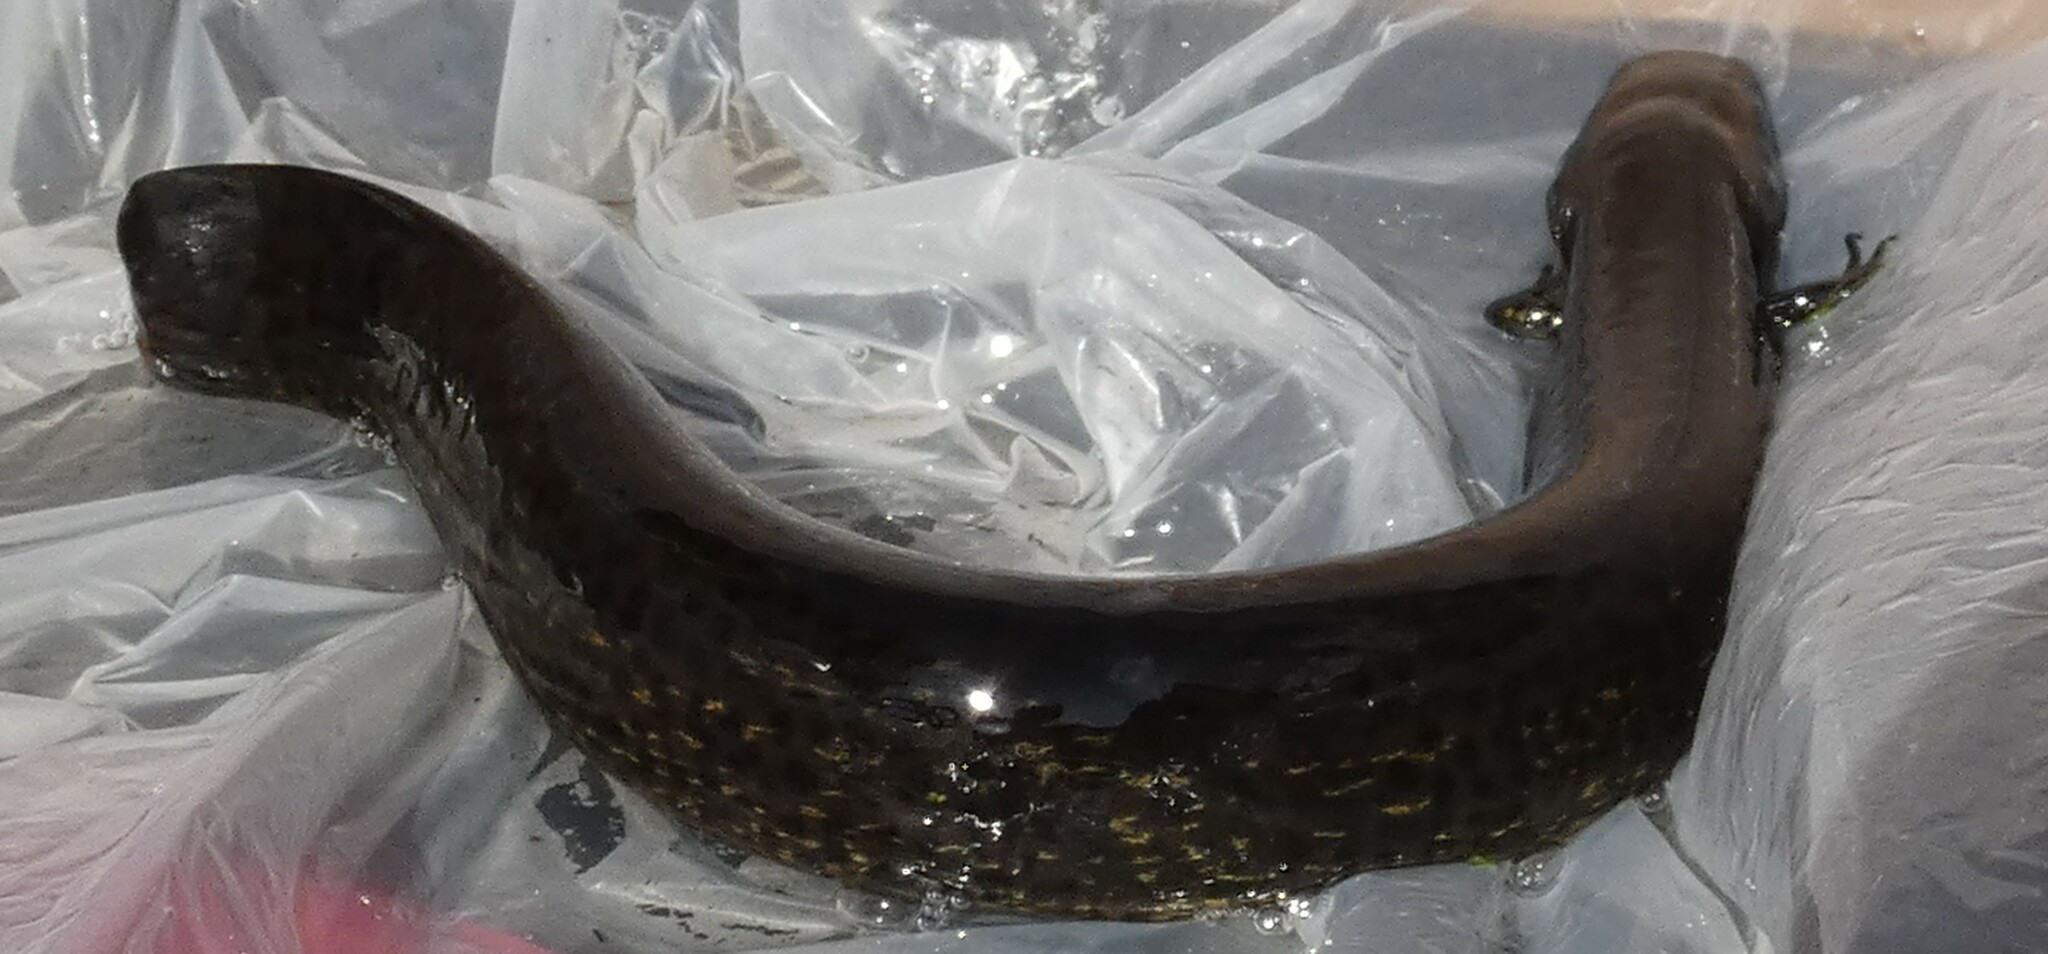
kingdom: Animalia
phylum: Chordata
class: Amphibia
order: Caudata
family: Sirenidae
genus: Siren
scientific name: Siren lacertina
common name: Greater siren
